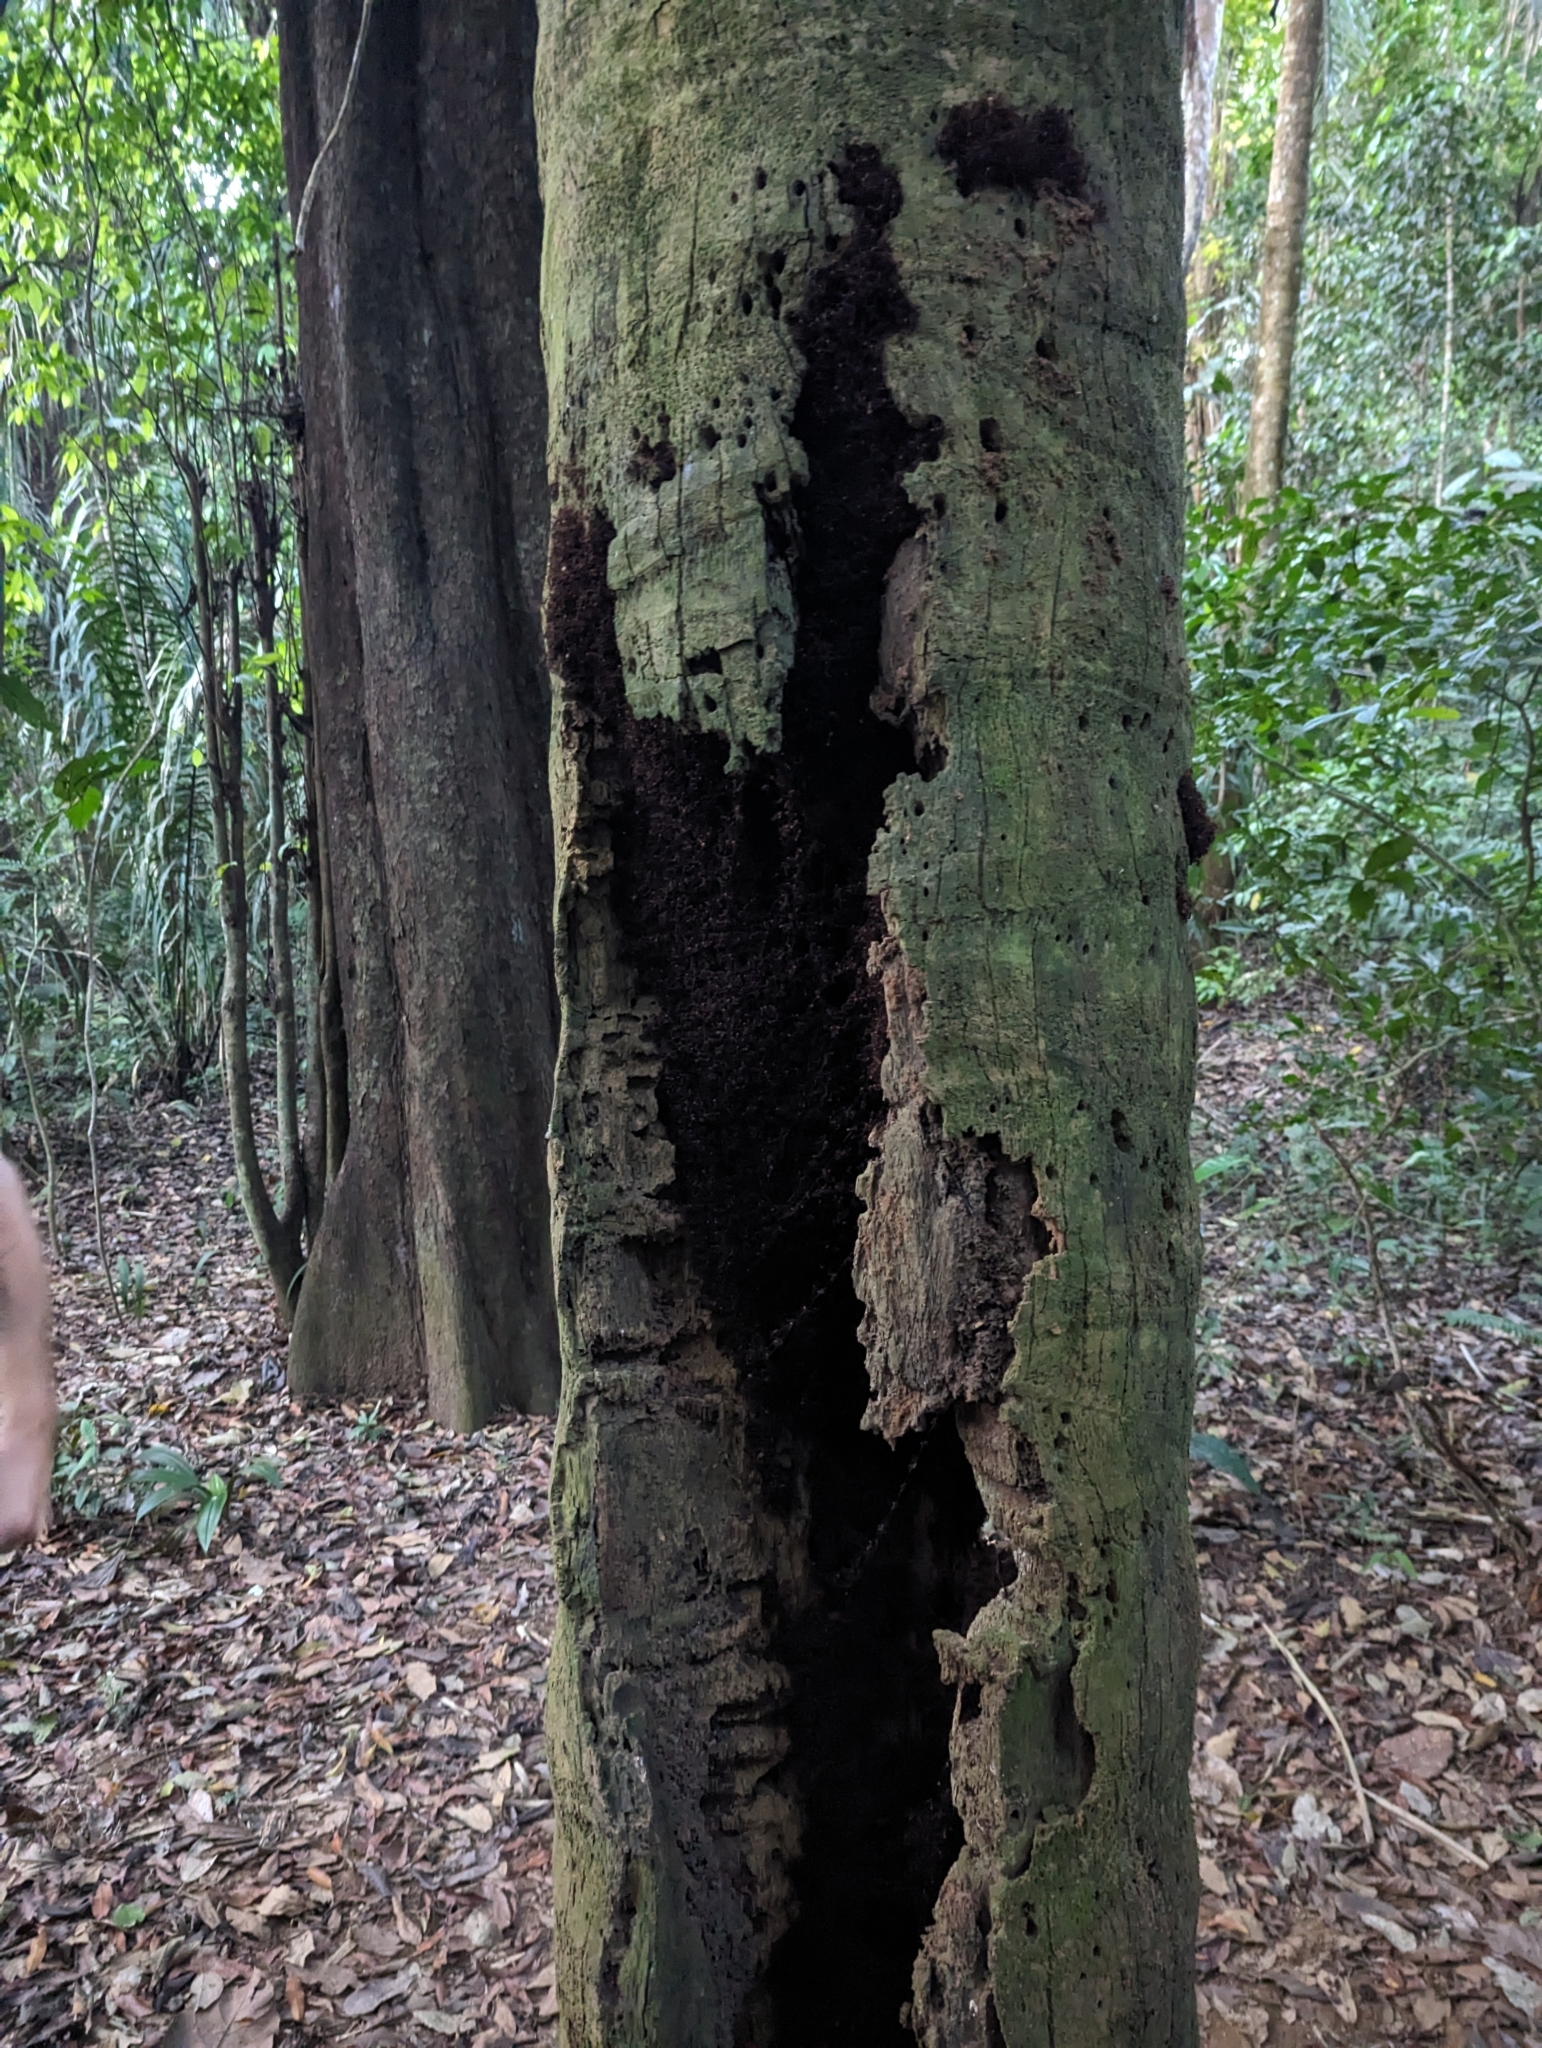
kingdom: Animalia
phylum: Arthropoda
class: Insecta
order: Hymenoptera
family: Formicidae
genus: Eciton
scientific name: Eciton burchellii
